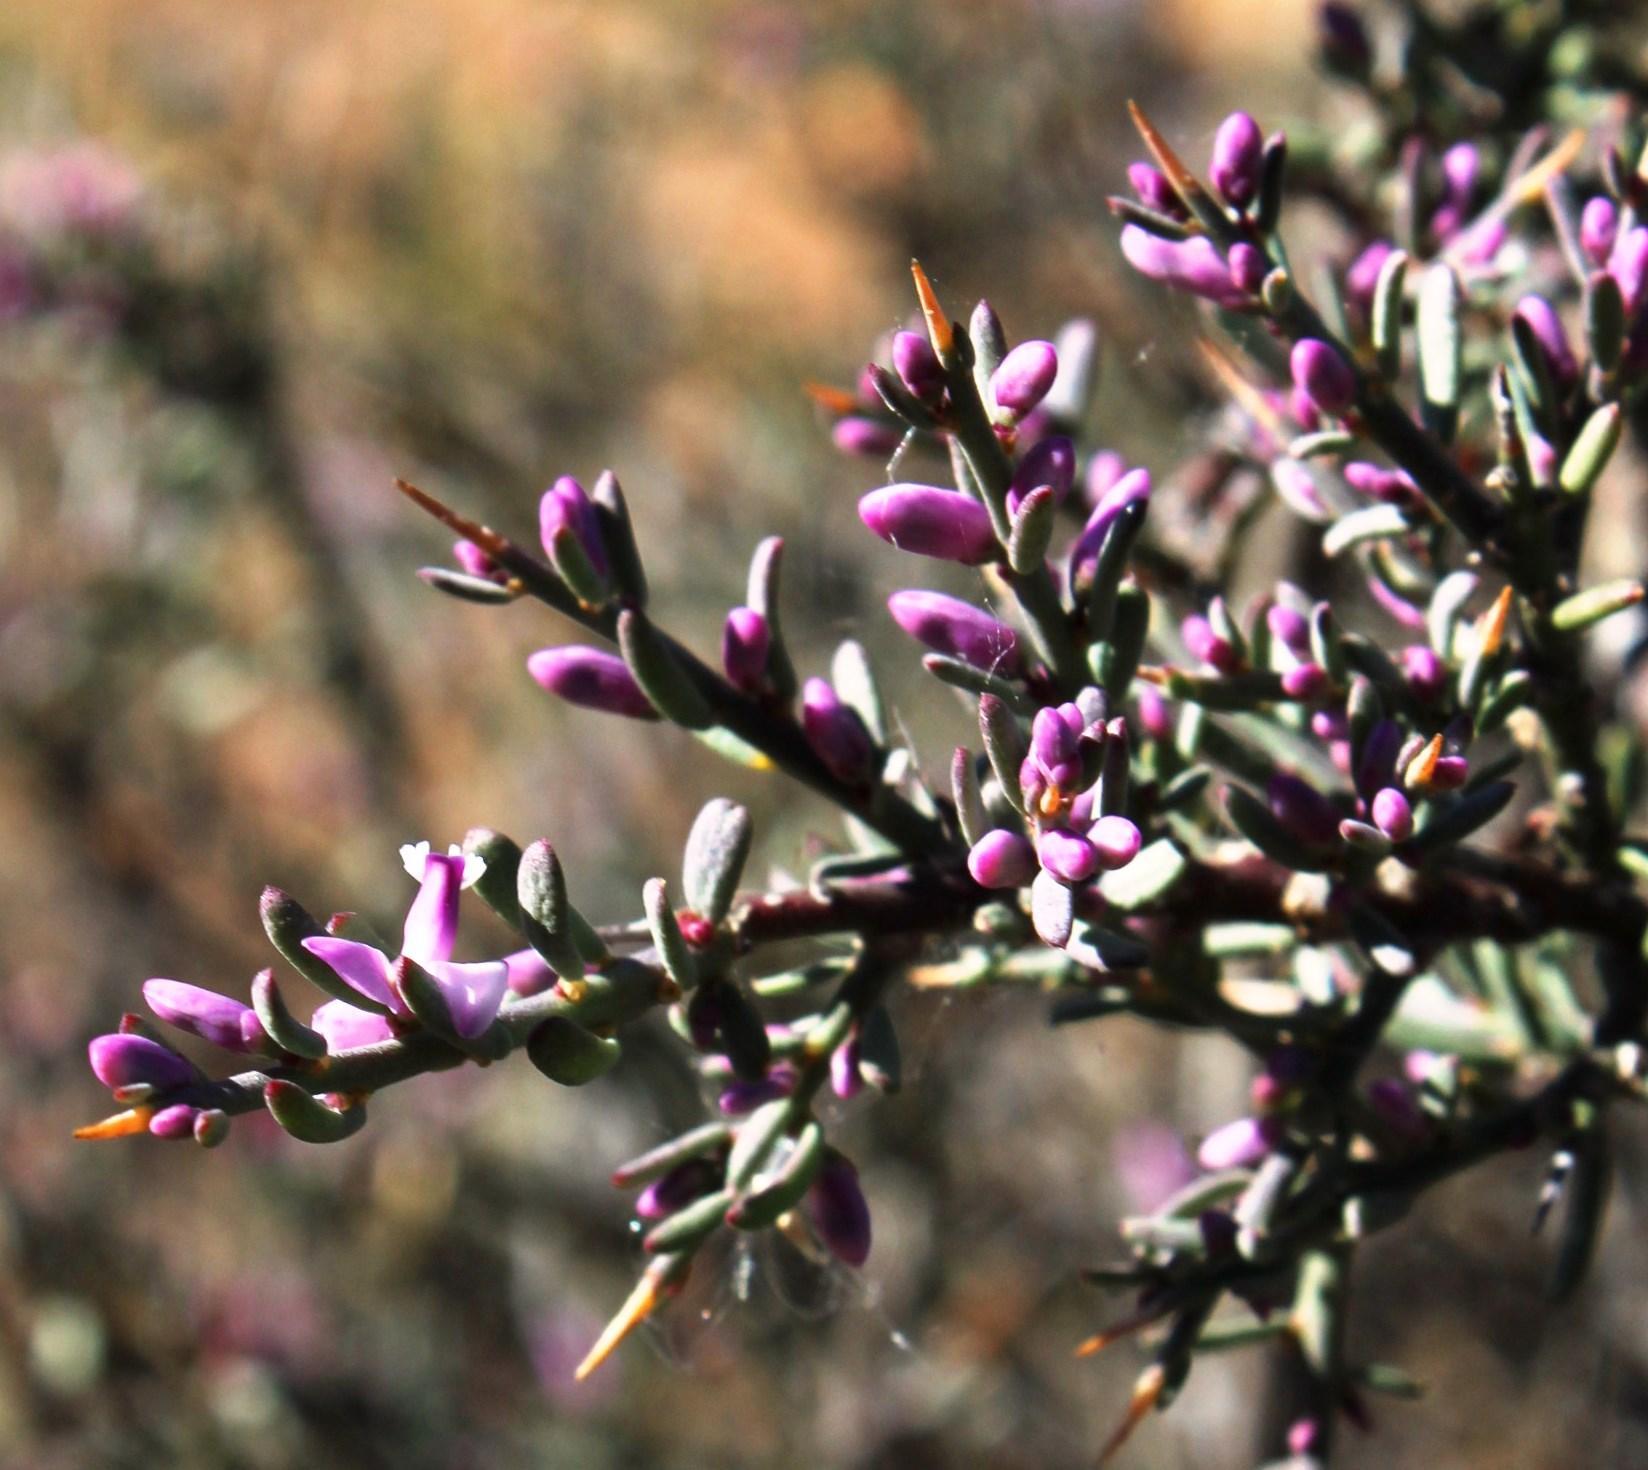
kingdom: Plantae
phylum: Tracheophyta
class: Magnoliopsida
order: Fabales
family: Polygalaceae
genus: Muraltia
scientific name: Muraltia spinosa
